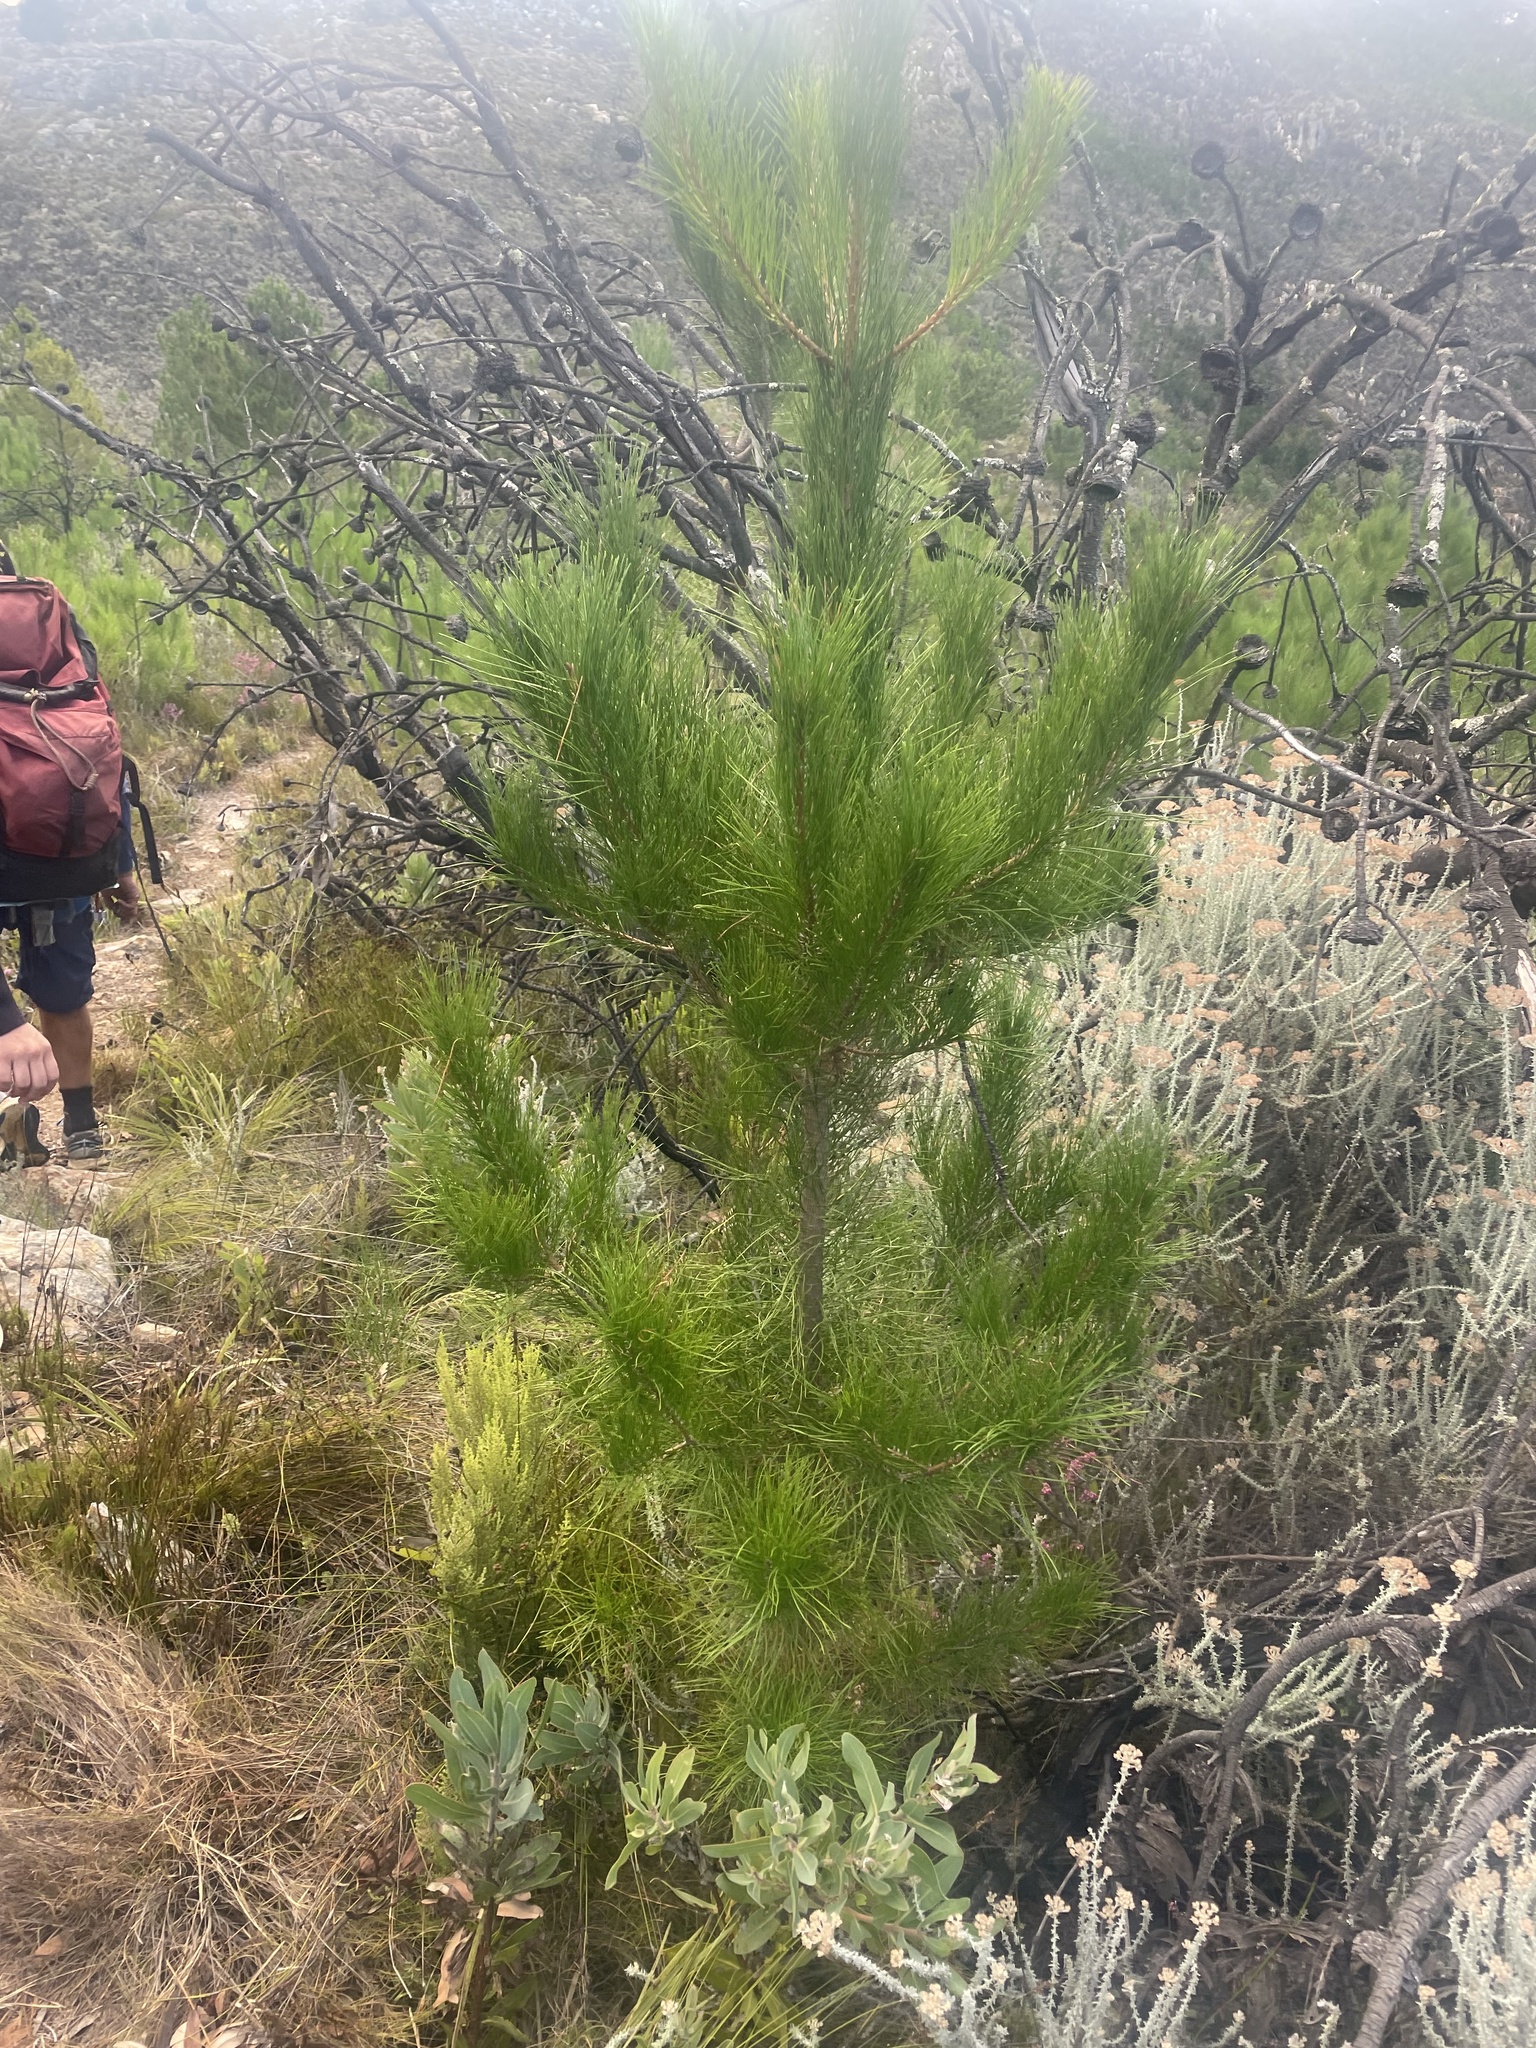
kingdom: Plantae
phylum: Tracheophyta
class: Pinopsida
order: Pinales
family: Pinaceae
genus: Pinus
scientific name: Pinus radiata
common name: Monterey pine
